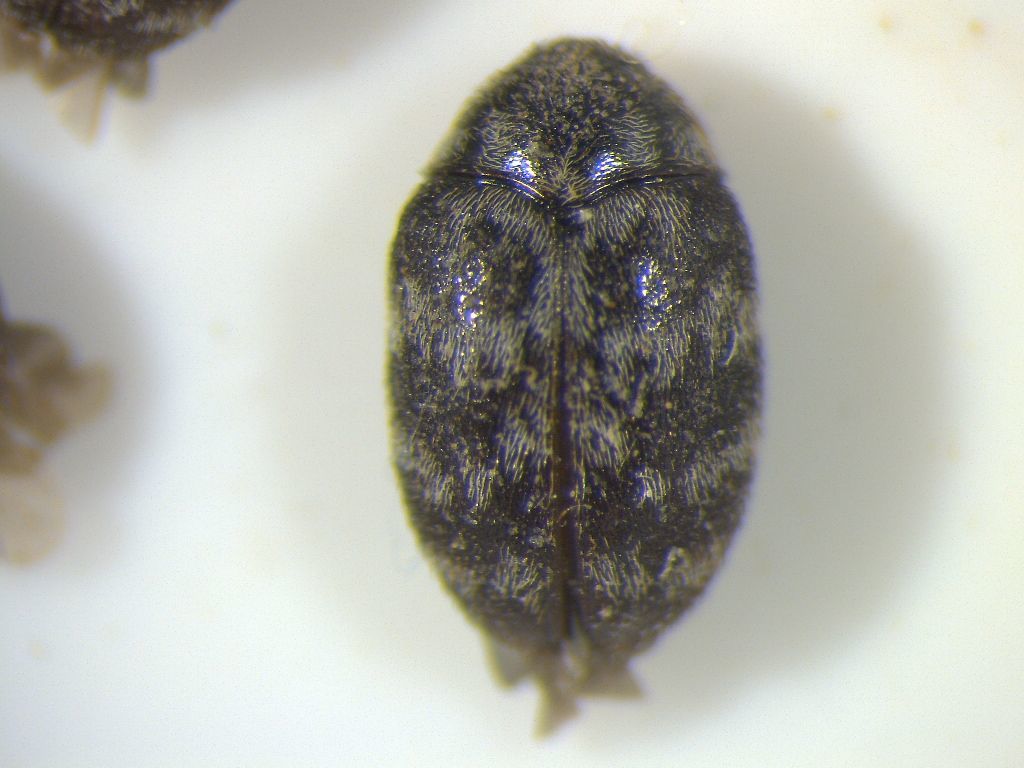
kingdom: Animalia
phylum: Arthropoda
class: Insecta
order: Coleoptera
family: Dermestidae
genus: Anthrenocerus
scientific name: Anthrenocerus australis
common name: Australian carpet beetle
